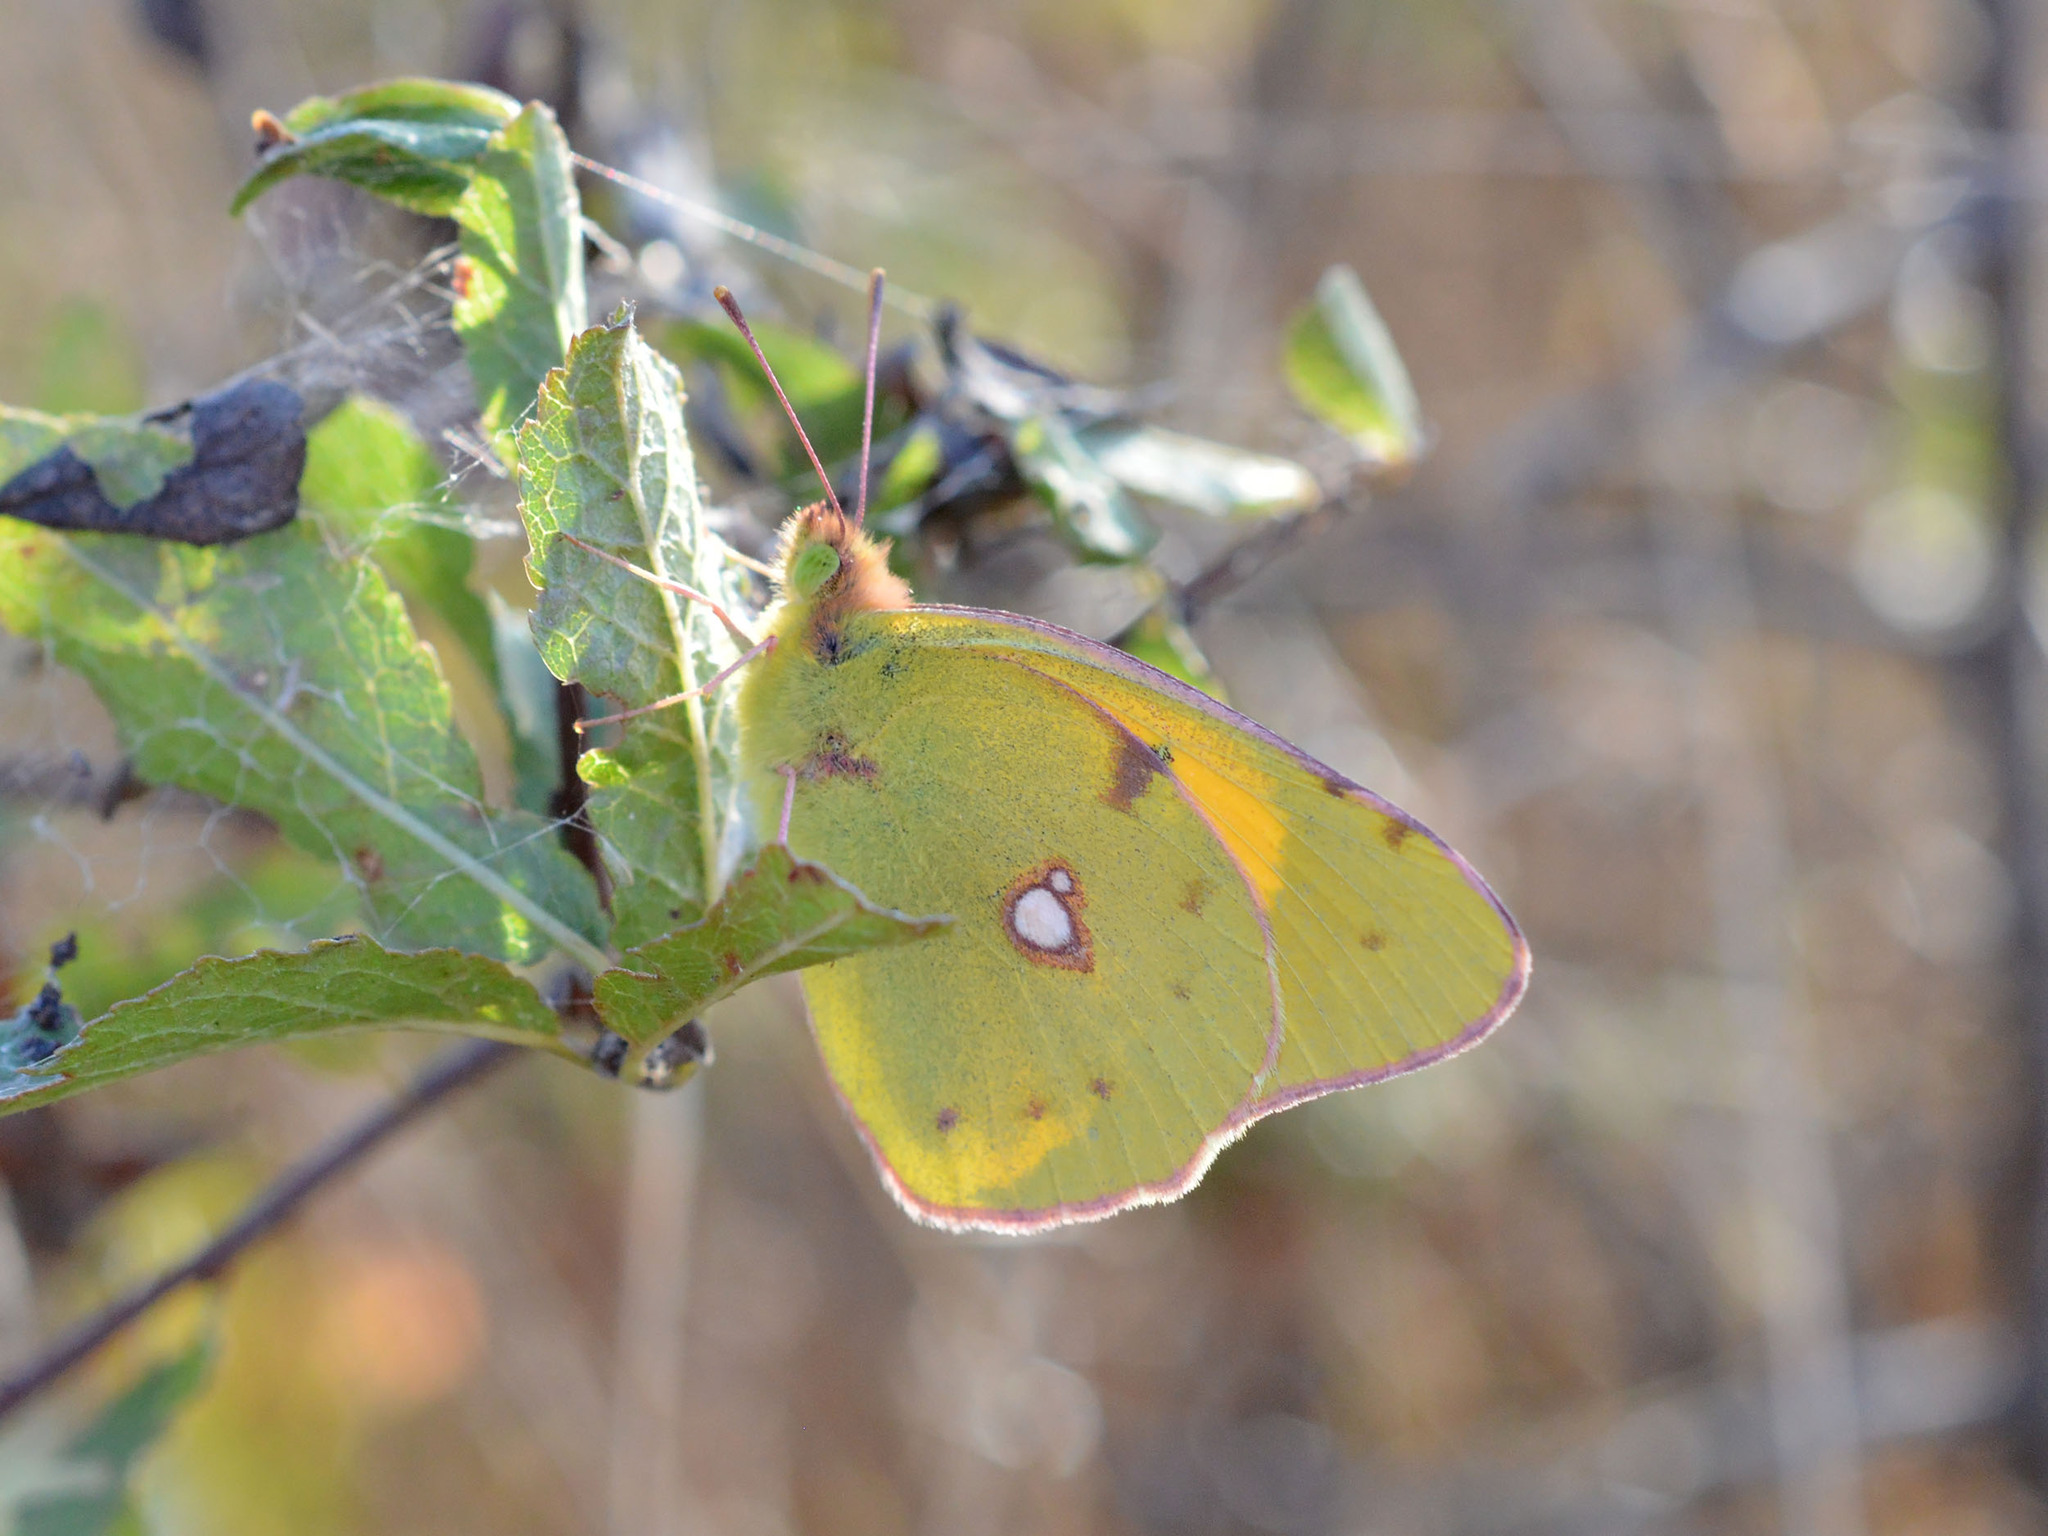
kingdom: Animalia
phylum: Arthropoda
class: Insecta
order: Lepidoptera
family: Pieridae
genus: Colias
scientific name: Colias croceus
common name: Clouded yellow
